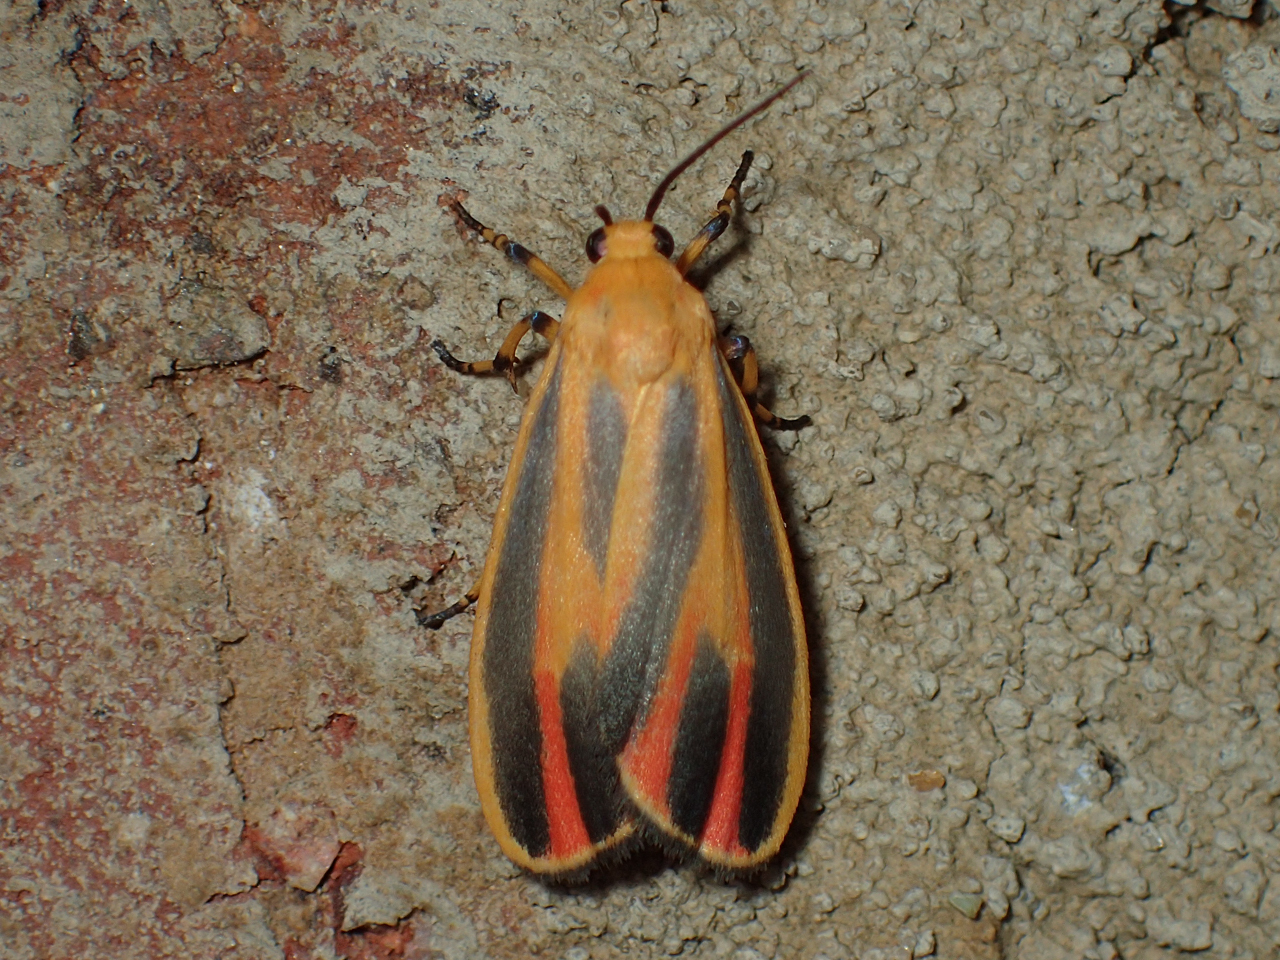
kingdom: Animalia
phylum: Arthropoda
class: Insecta
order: Lepidoptera
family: Erebidae
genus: Hypoprepia
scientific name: Hypoprepia fucosa
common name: Painted lichen moth
